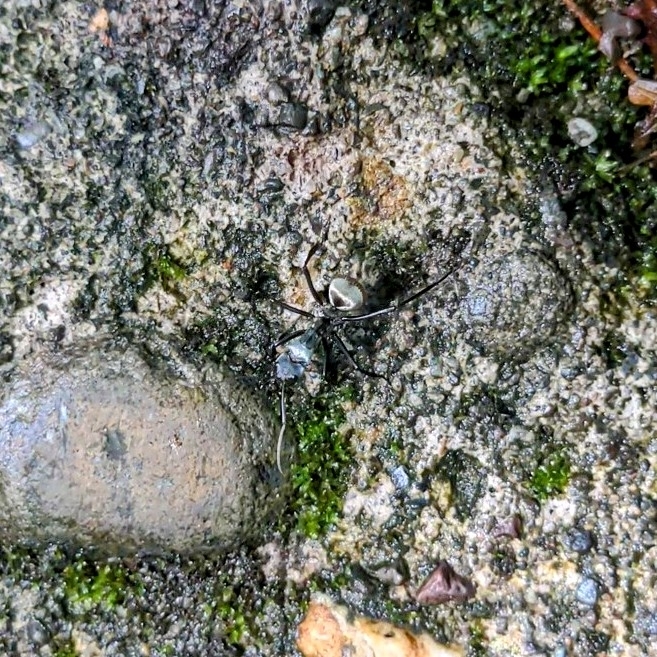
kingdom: Animalia
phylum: Arthropoda
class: Insecta
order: Hymenoptera
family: Formicidae
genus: Camponotus
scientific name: Camponotus sericeiventris
